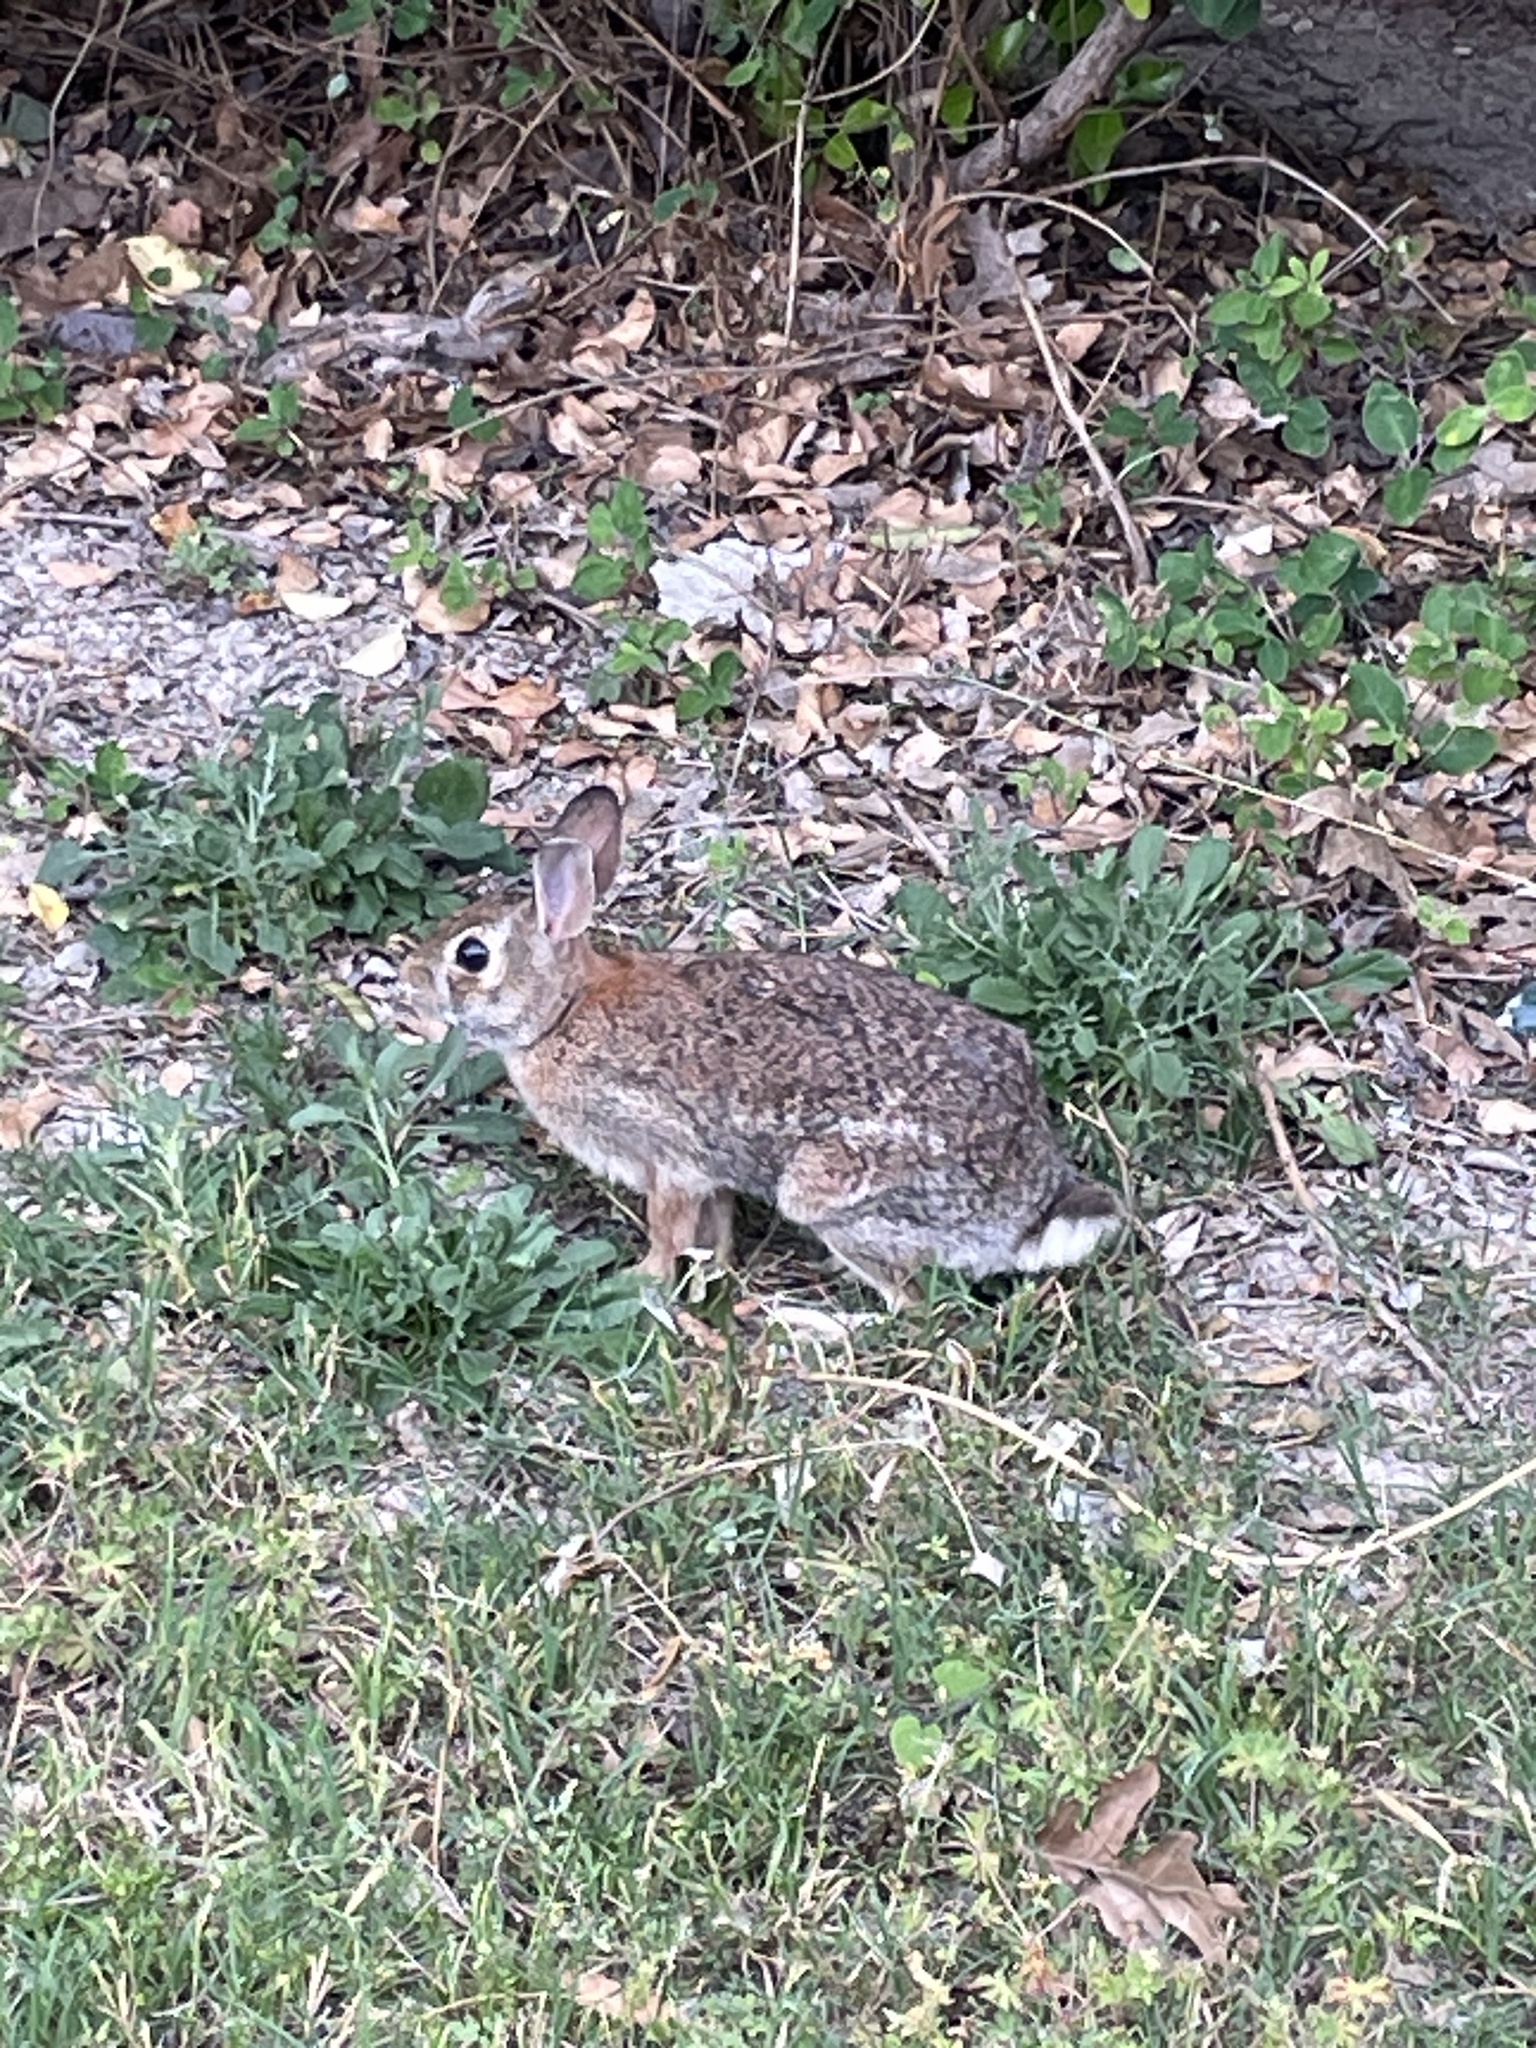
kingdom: Animalia
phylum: Chordata
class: Mammalia
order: Lagomorpha
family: Leporidae
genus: Sylvilagus
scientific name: Sylvilagus floridanus
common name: Eastern cottontail
